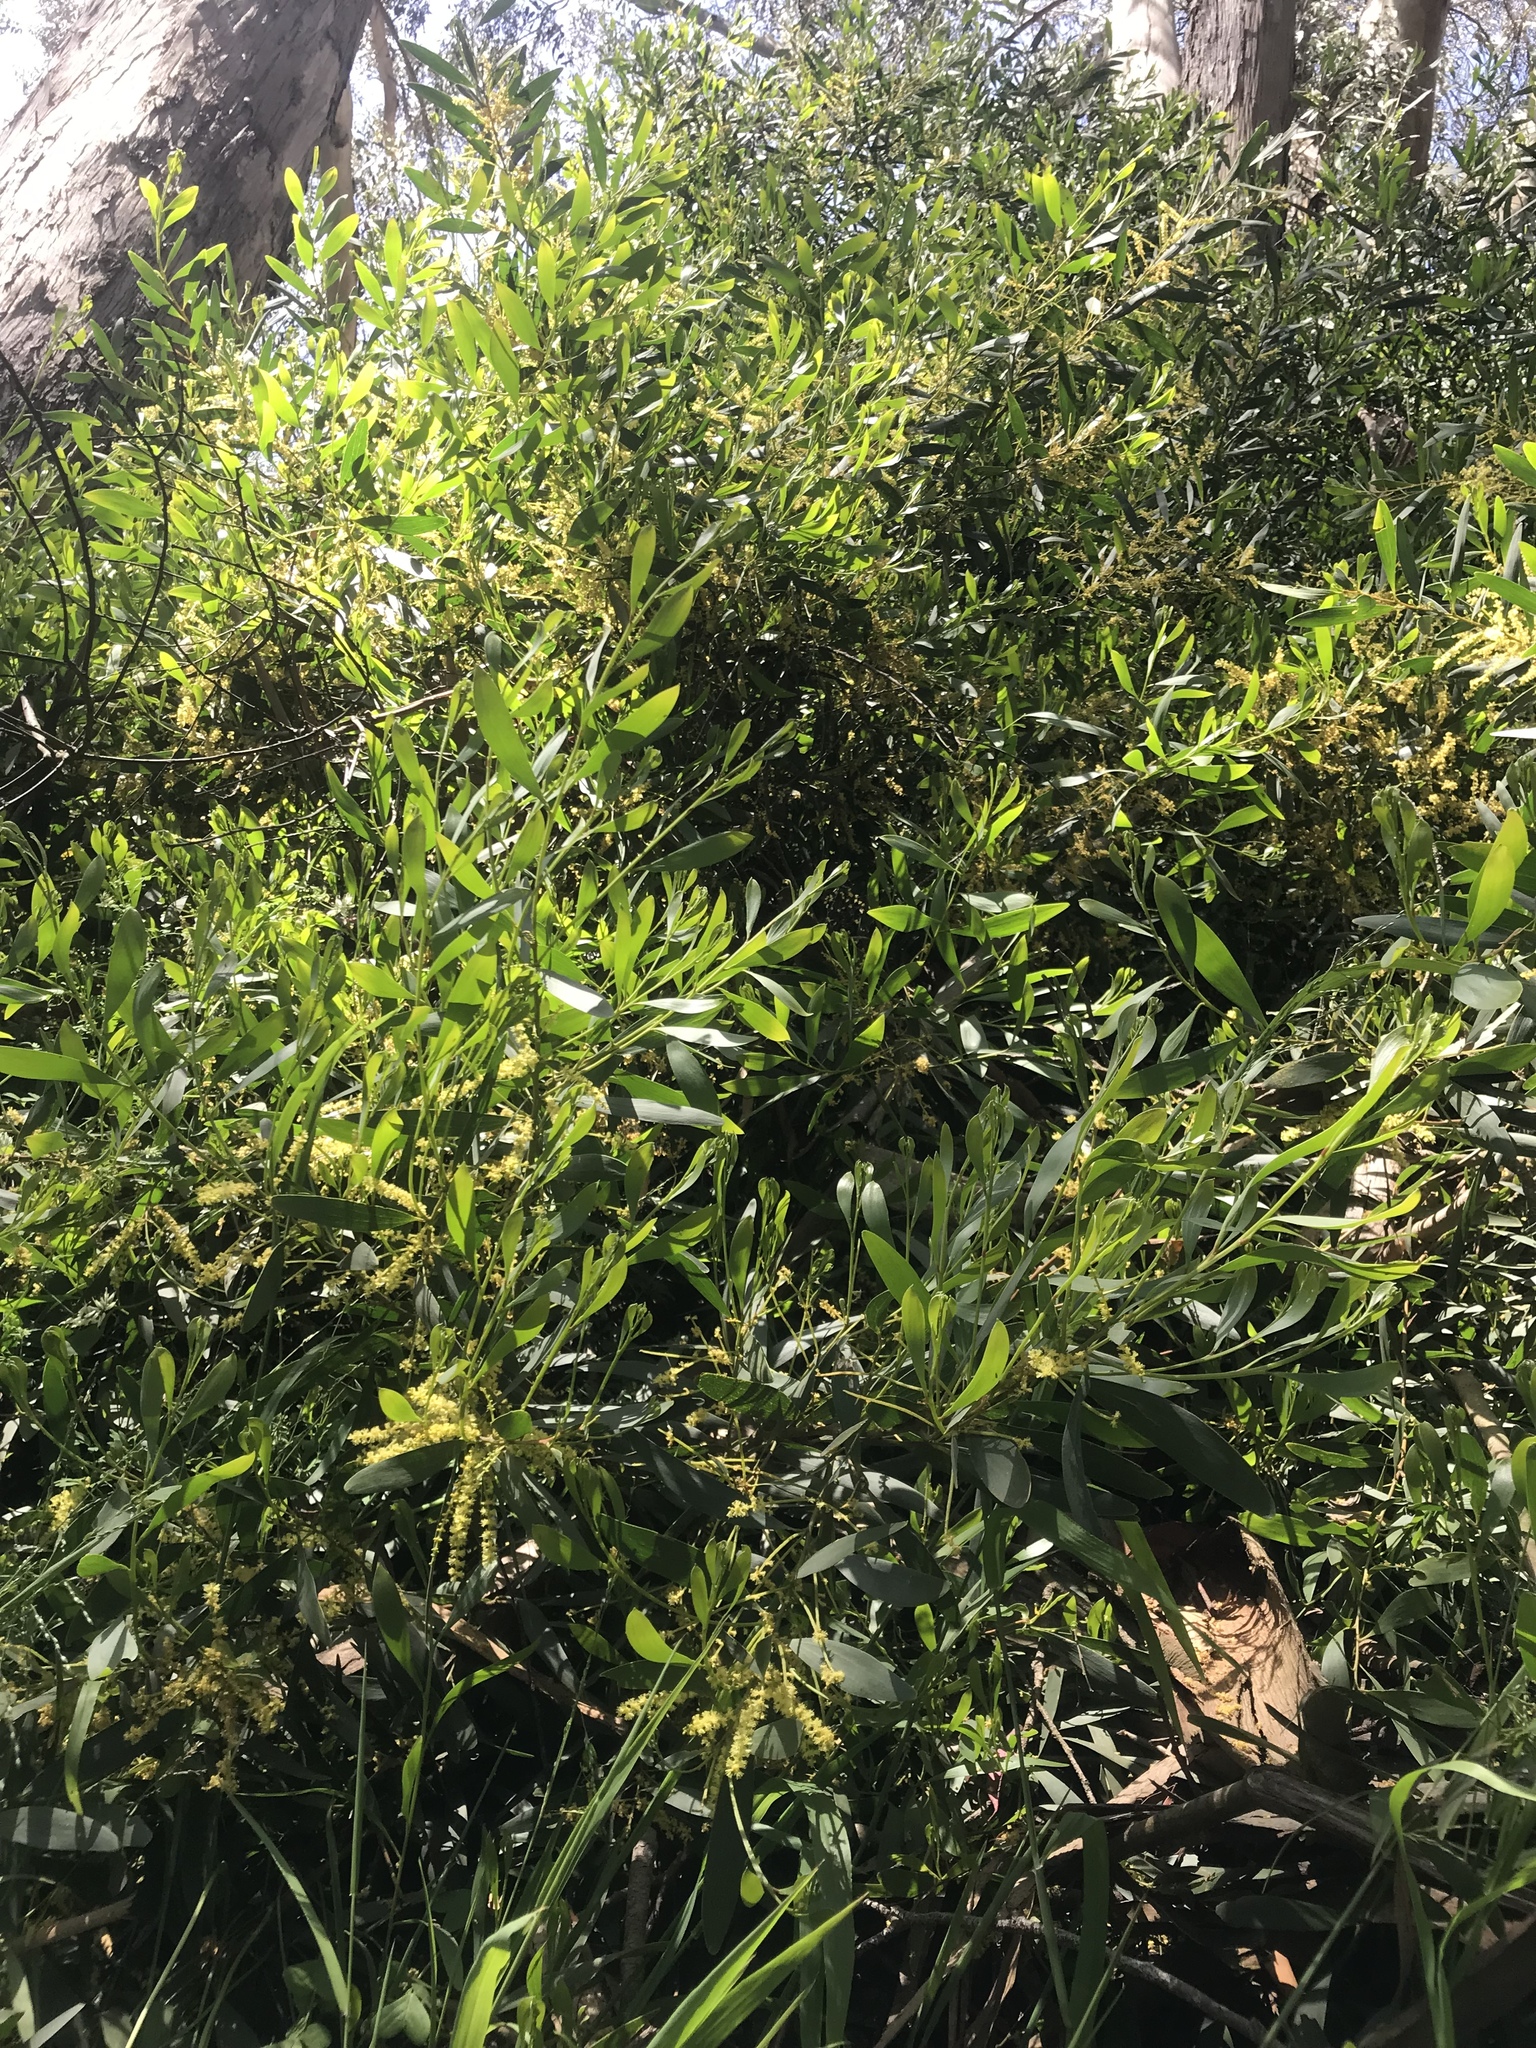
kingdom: Plantae
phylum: Tracheophyta
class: Magnoliopsida
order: Fabales
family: Fabaceae
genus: Acacia
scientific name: Acacia longifolia
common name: Sydney golden wattle
